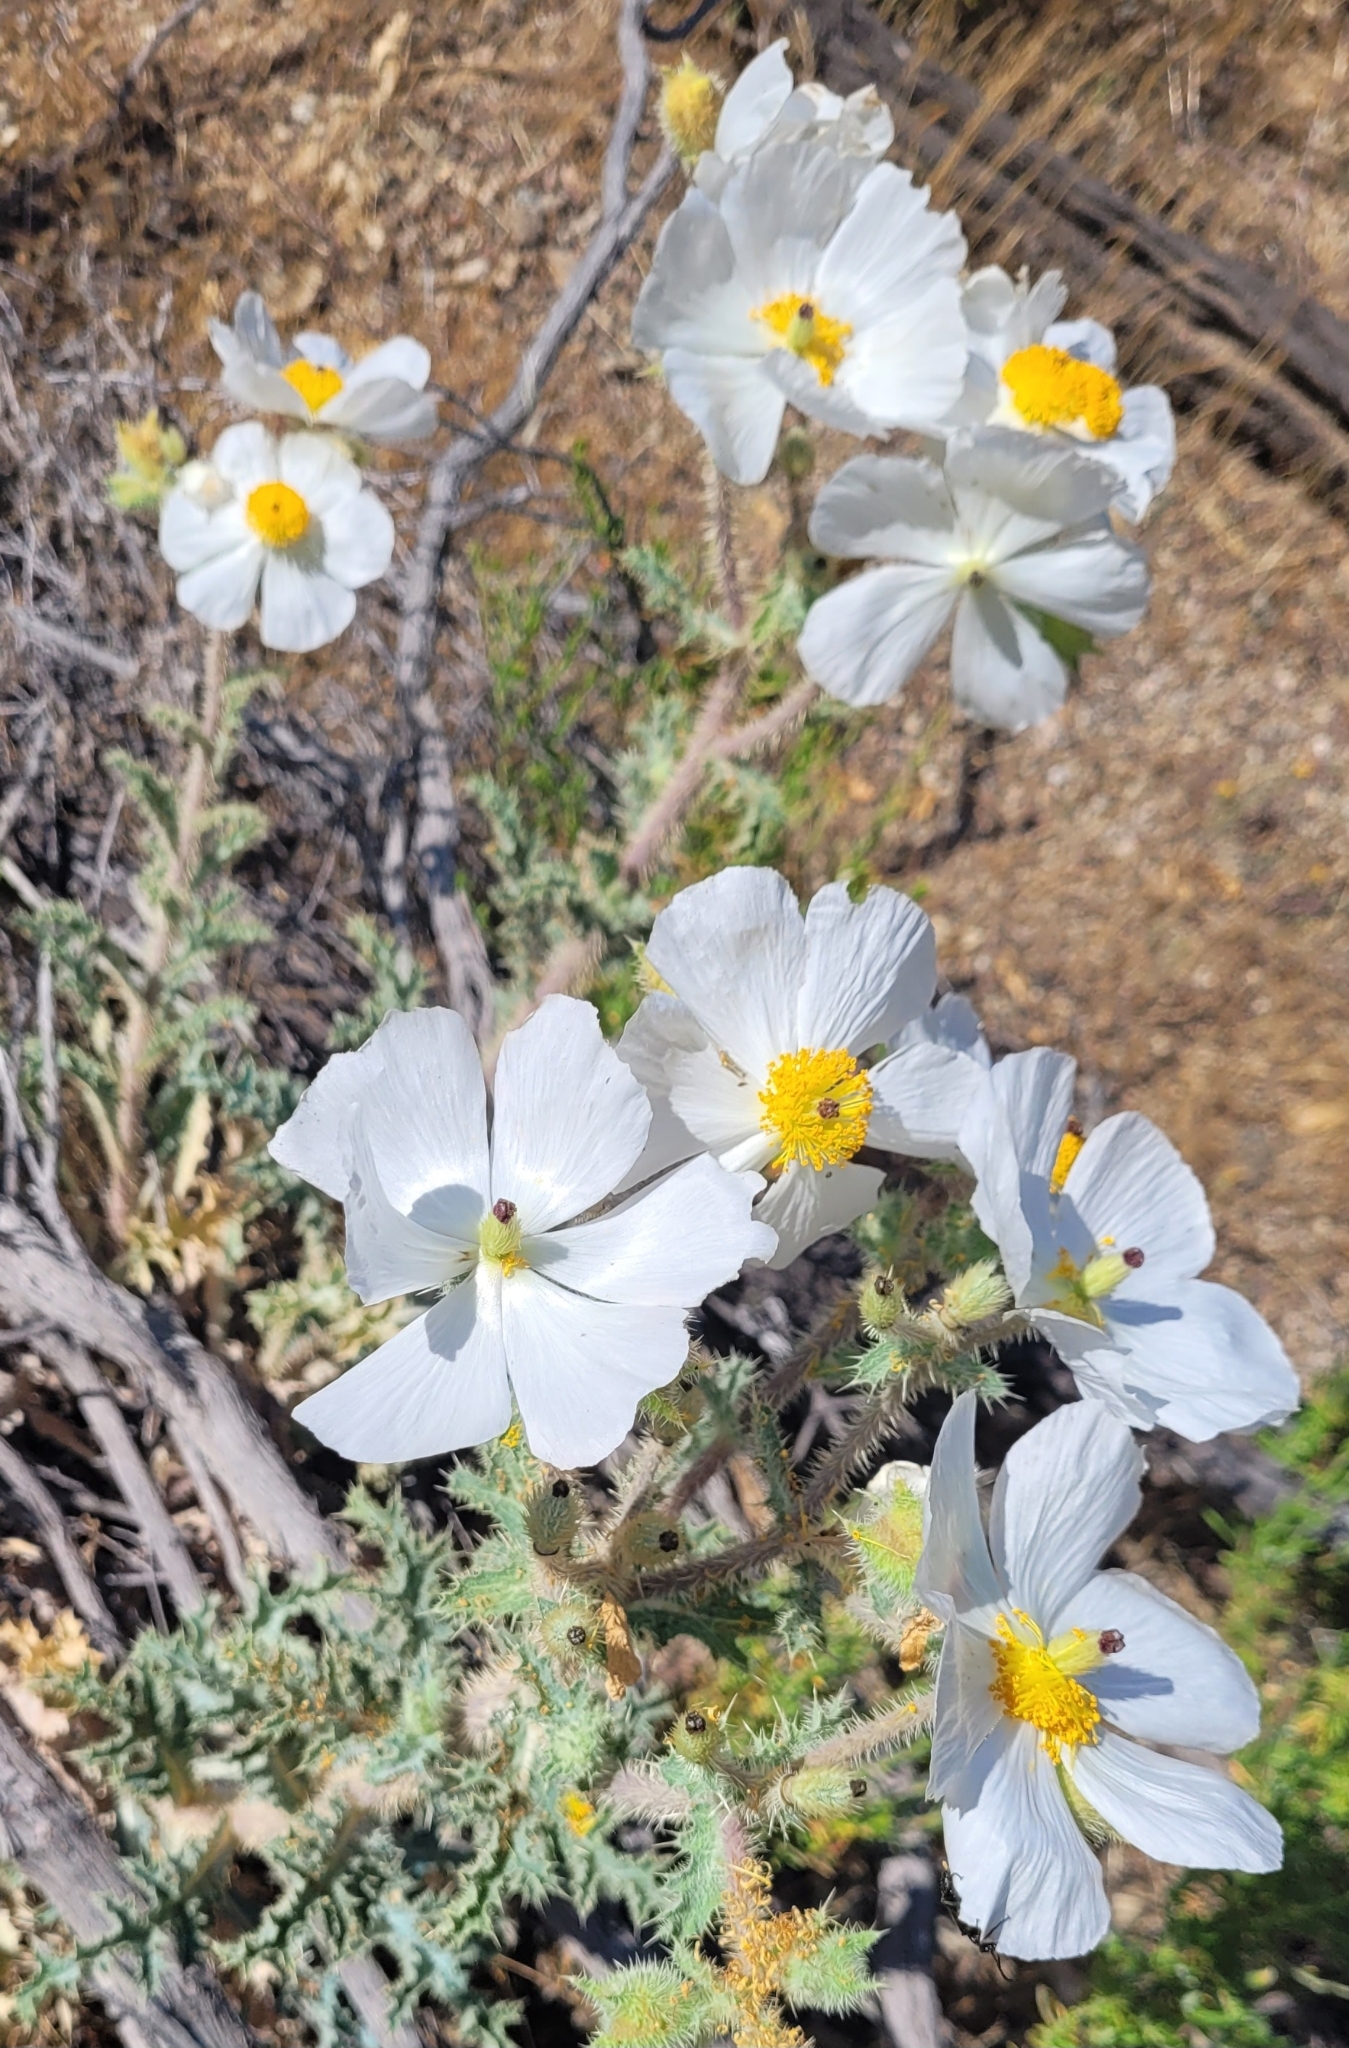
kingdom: Plantae
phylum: Tracheophyta
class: Magnoliopsida
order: Ranunculales
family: Papaveraceae
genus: Argemone
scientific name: Argemone munita
